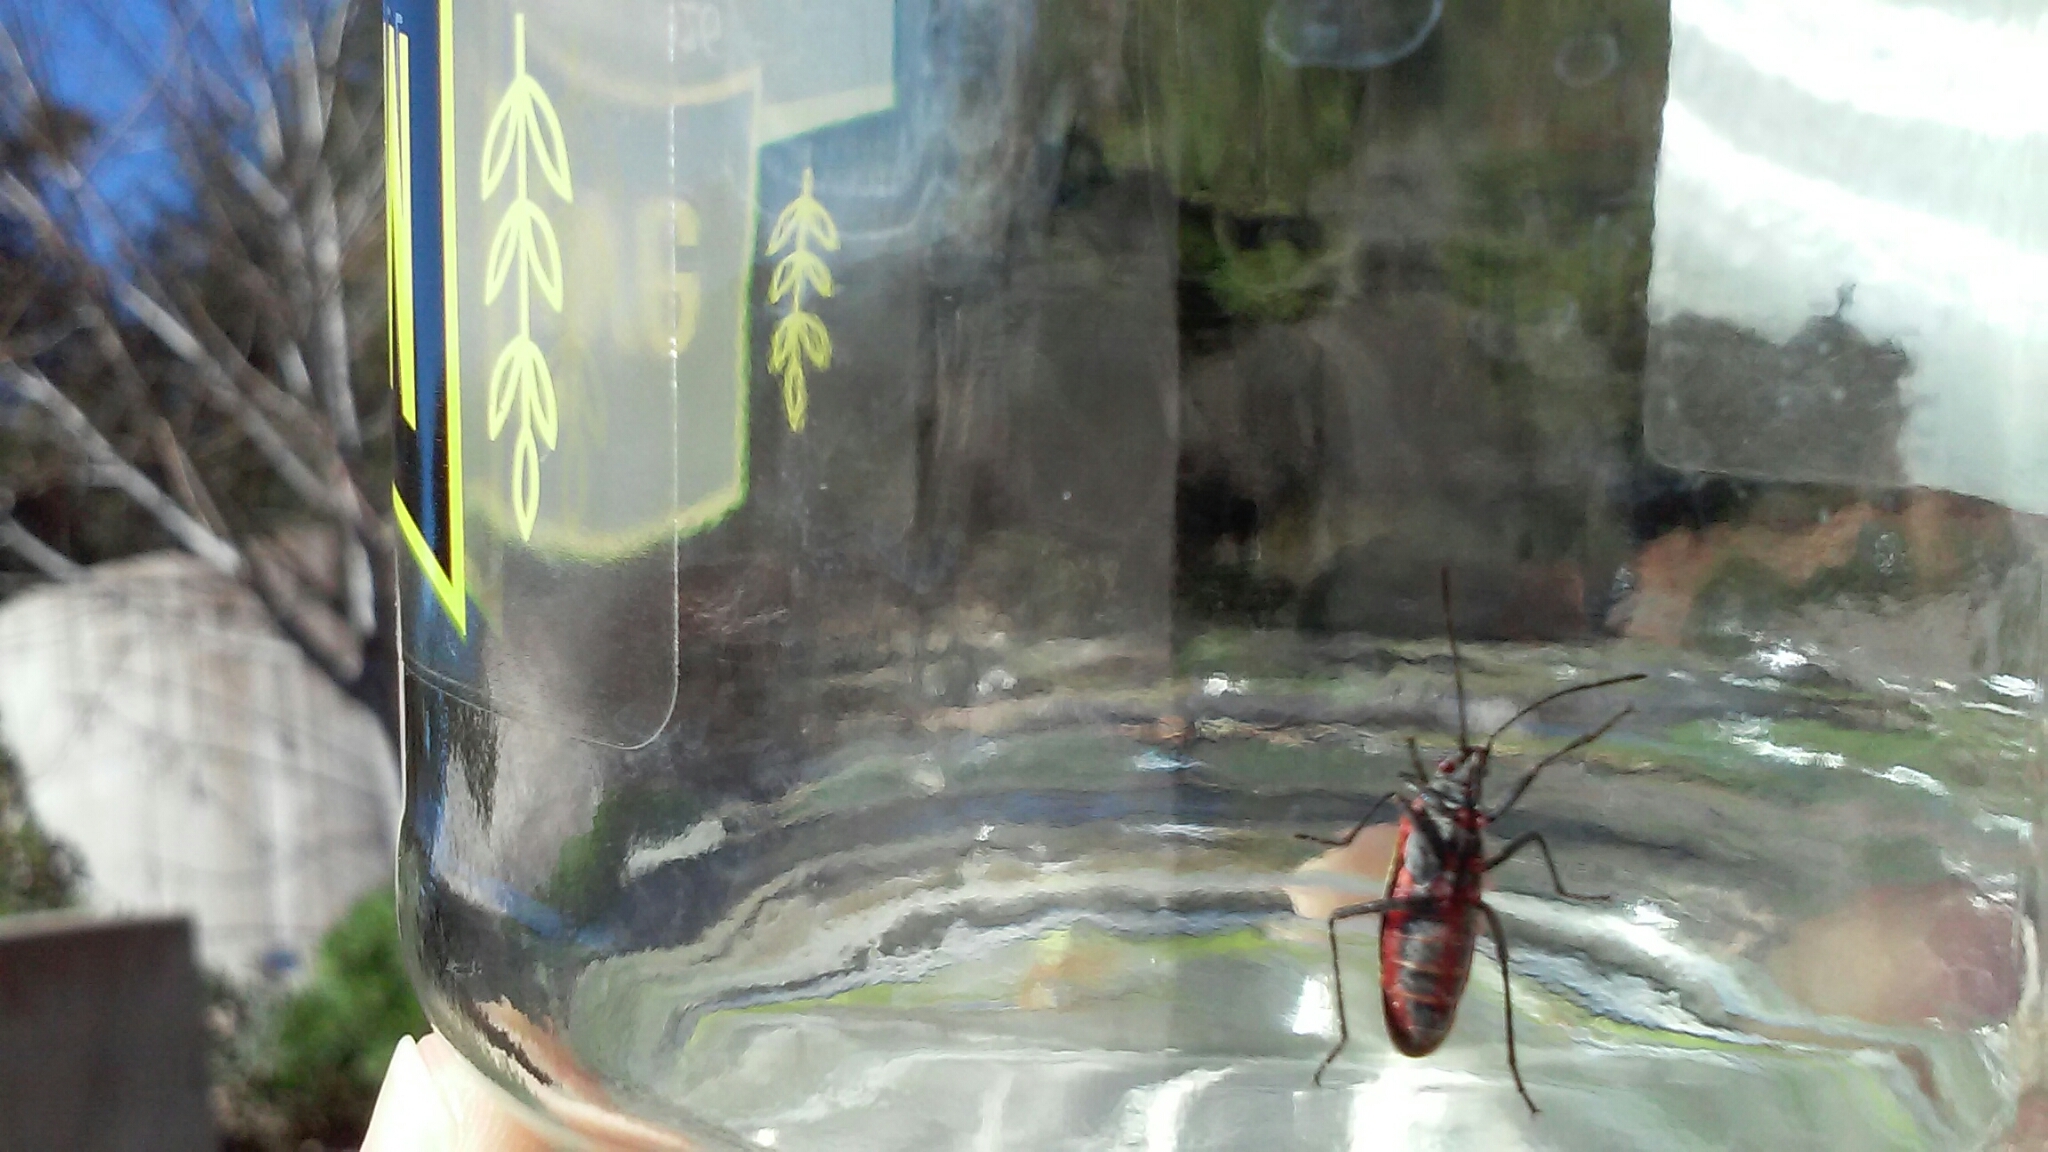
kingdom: Animalia
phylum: Arthropoda
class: Insecta
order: Hemiptera
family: Rhopalidae
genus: Boisea
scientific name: Boisea rubrolineata
